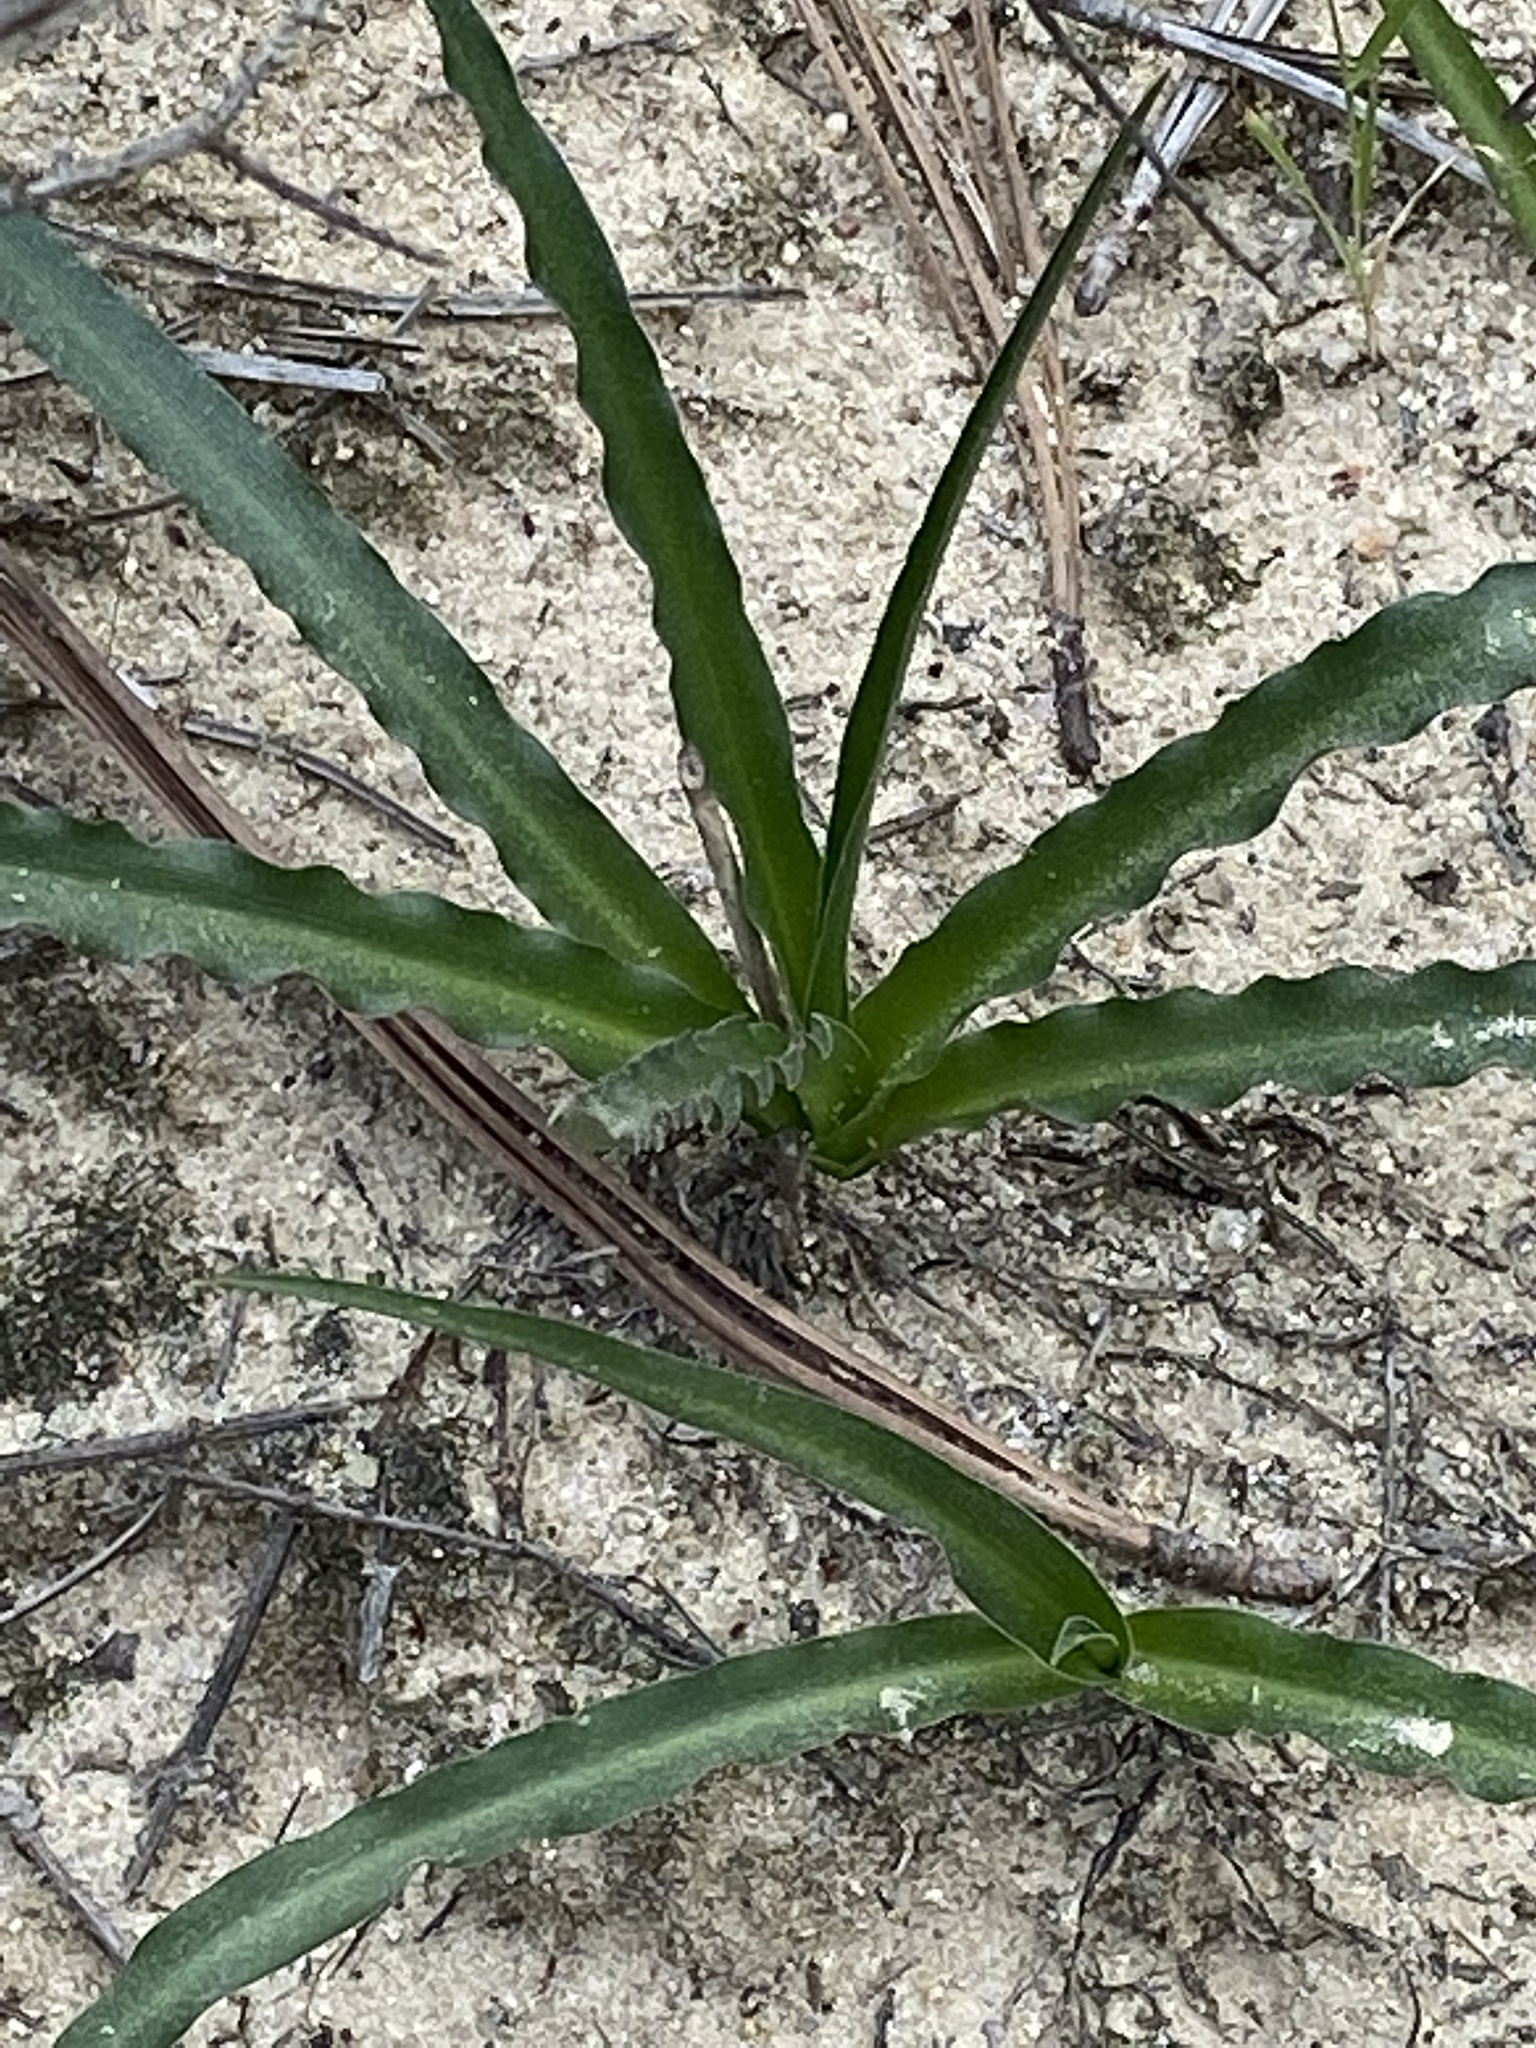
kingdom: Plantae
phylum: Tracheophyta
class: Liliopsida
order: Asparagales
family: Asparagaceae
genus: Hooveria
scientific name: Hooveria parviflora
